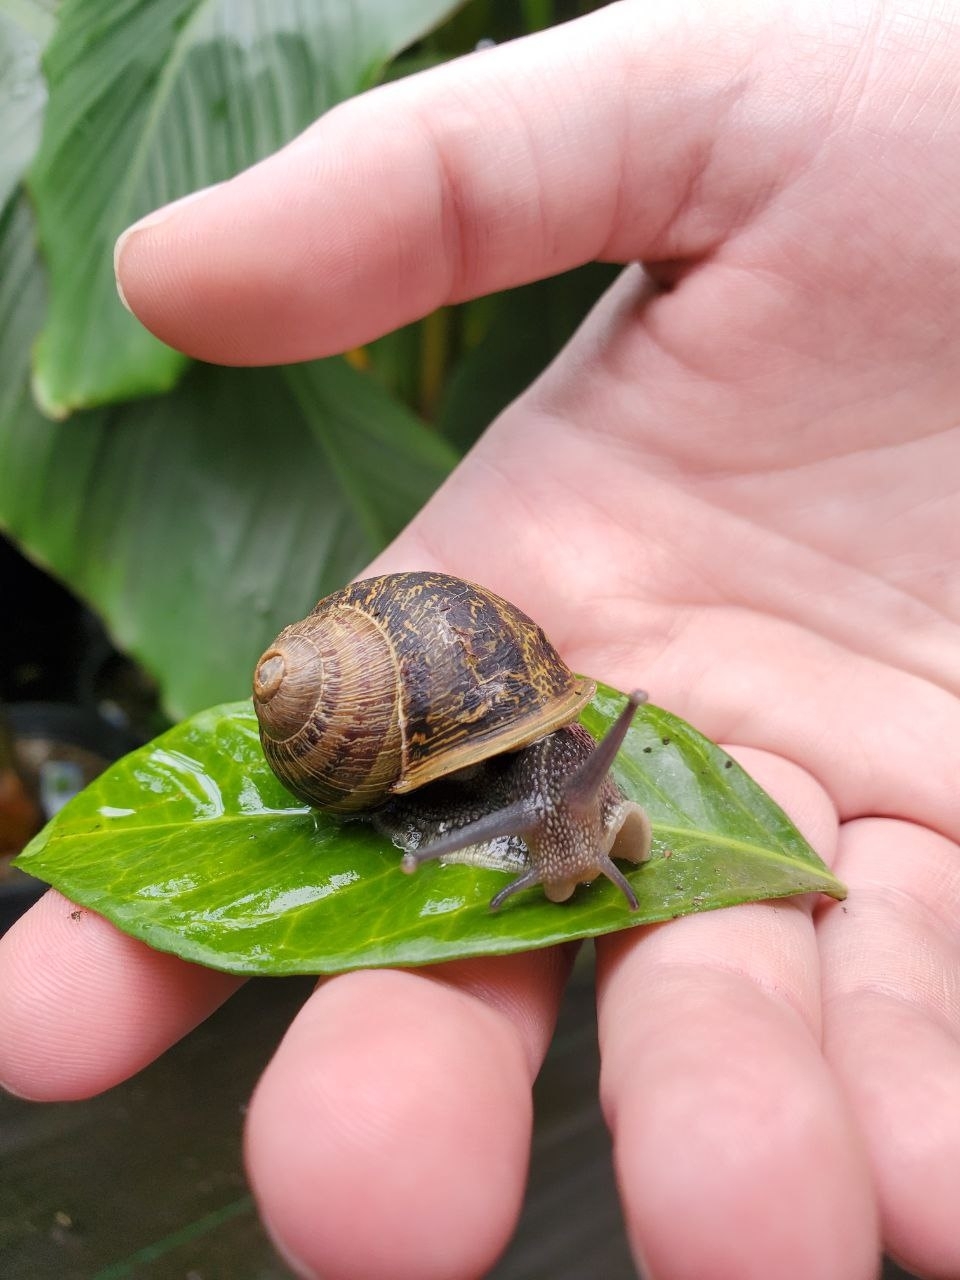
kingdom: Animalia
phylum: Mollusca
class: Gastropoda
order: Stylommatophora
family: Helicidae
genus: Cornu
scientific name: Cornu aspersum
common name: Brown garden snail
